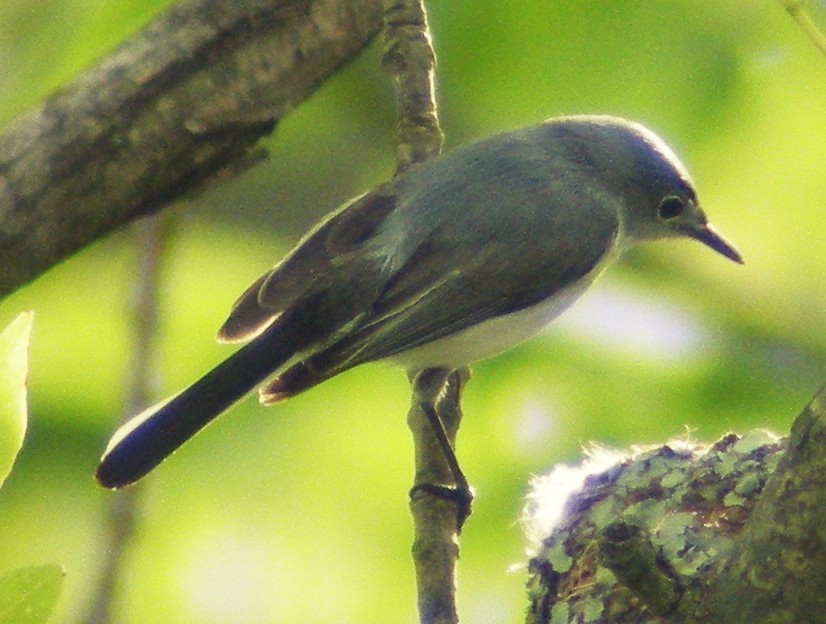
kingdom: Animalia
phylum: Chordata
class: Aves
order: Passeriformes
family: Polioptilidae
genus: Polioptila
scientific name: Polioptila caerulea
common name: Blue-gray gnatcatcher
